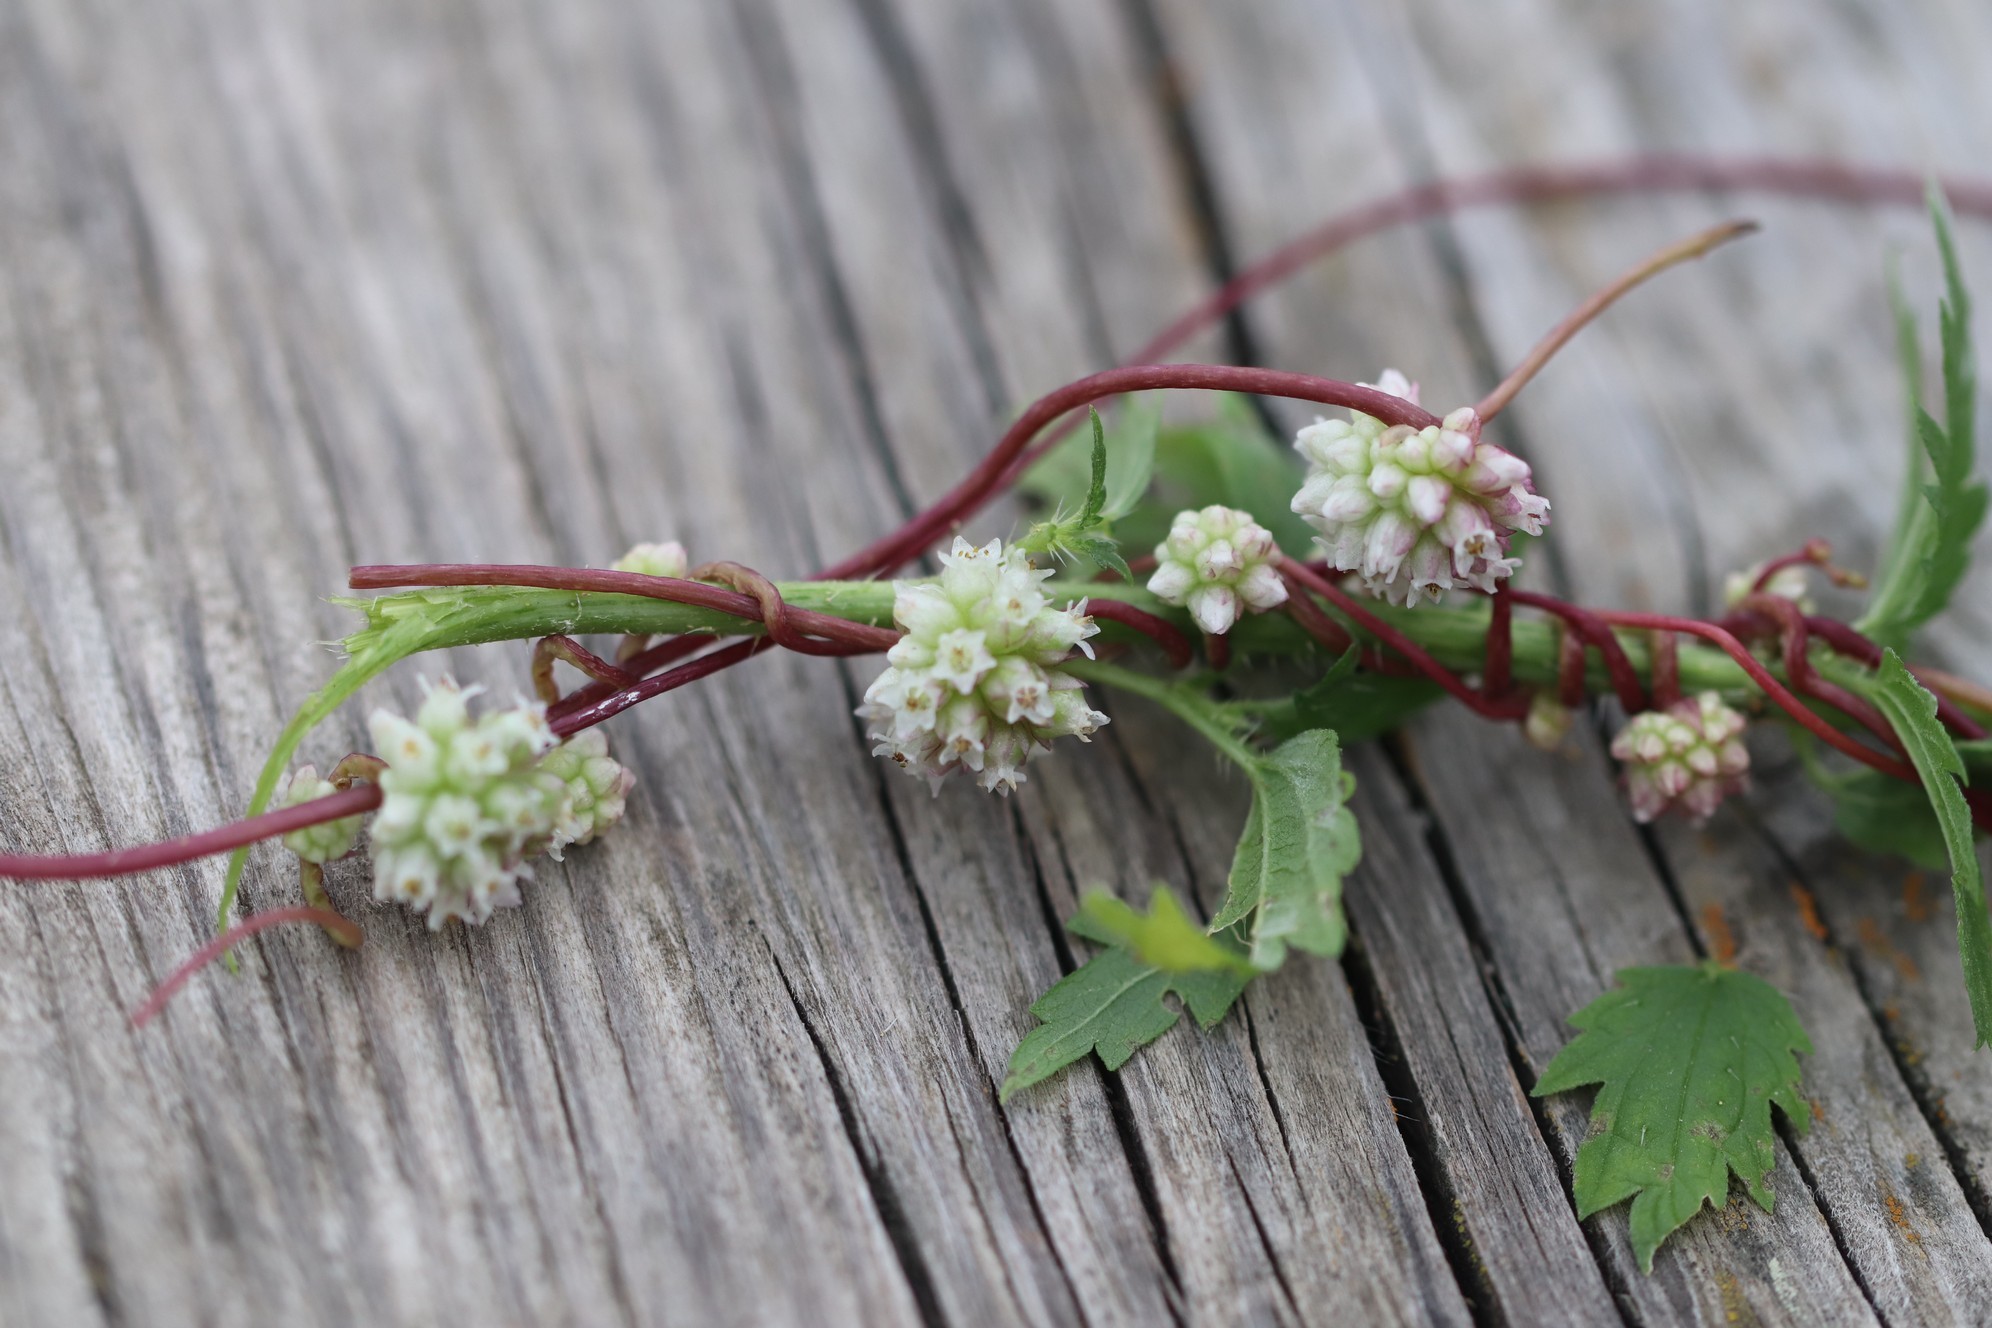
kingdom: Plantae
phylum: Tracheophyta
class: Magnoliopsida
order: Solanales
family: Convolvulaceae
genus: Cuscuta
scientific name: Cuscuta europaea
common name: Greater dodder
